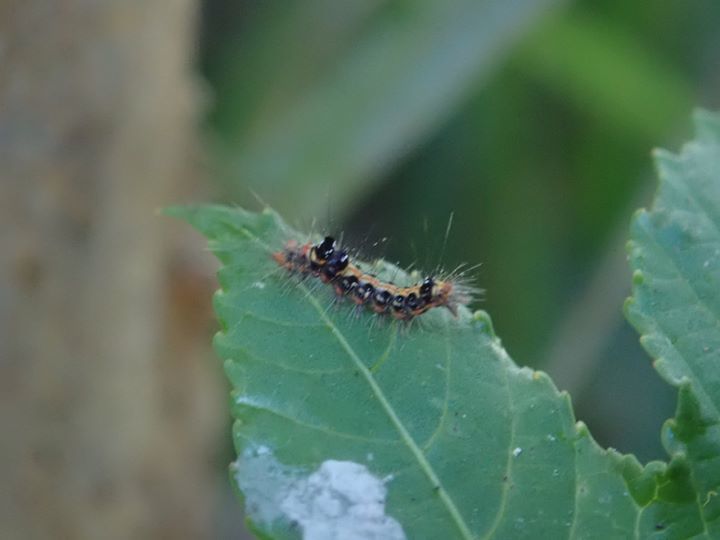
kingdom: Animalia
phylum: Arthropoda
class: Insecta
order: Lepidoptera
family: Erebidae
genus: Euproctis
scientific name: Euproctis dissimilis
